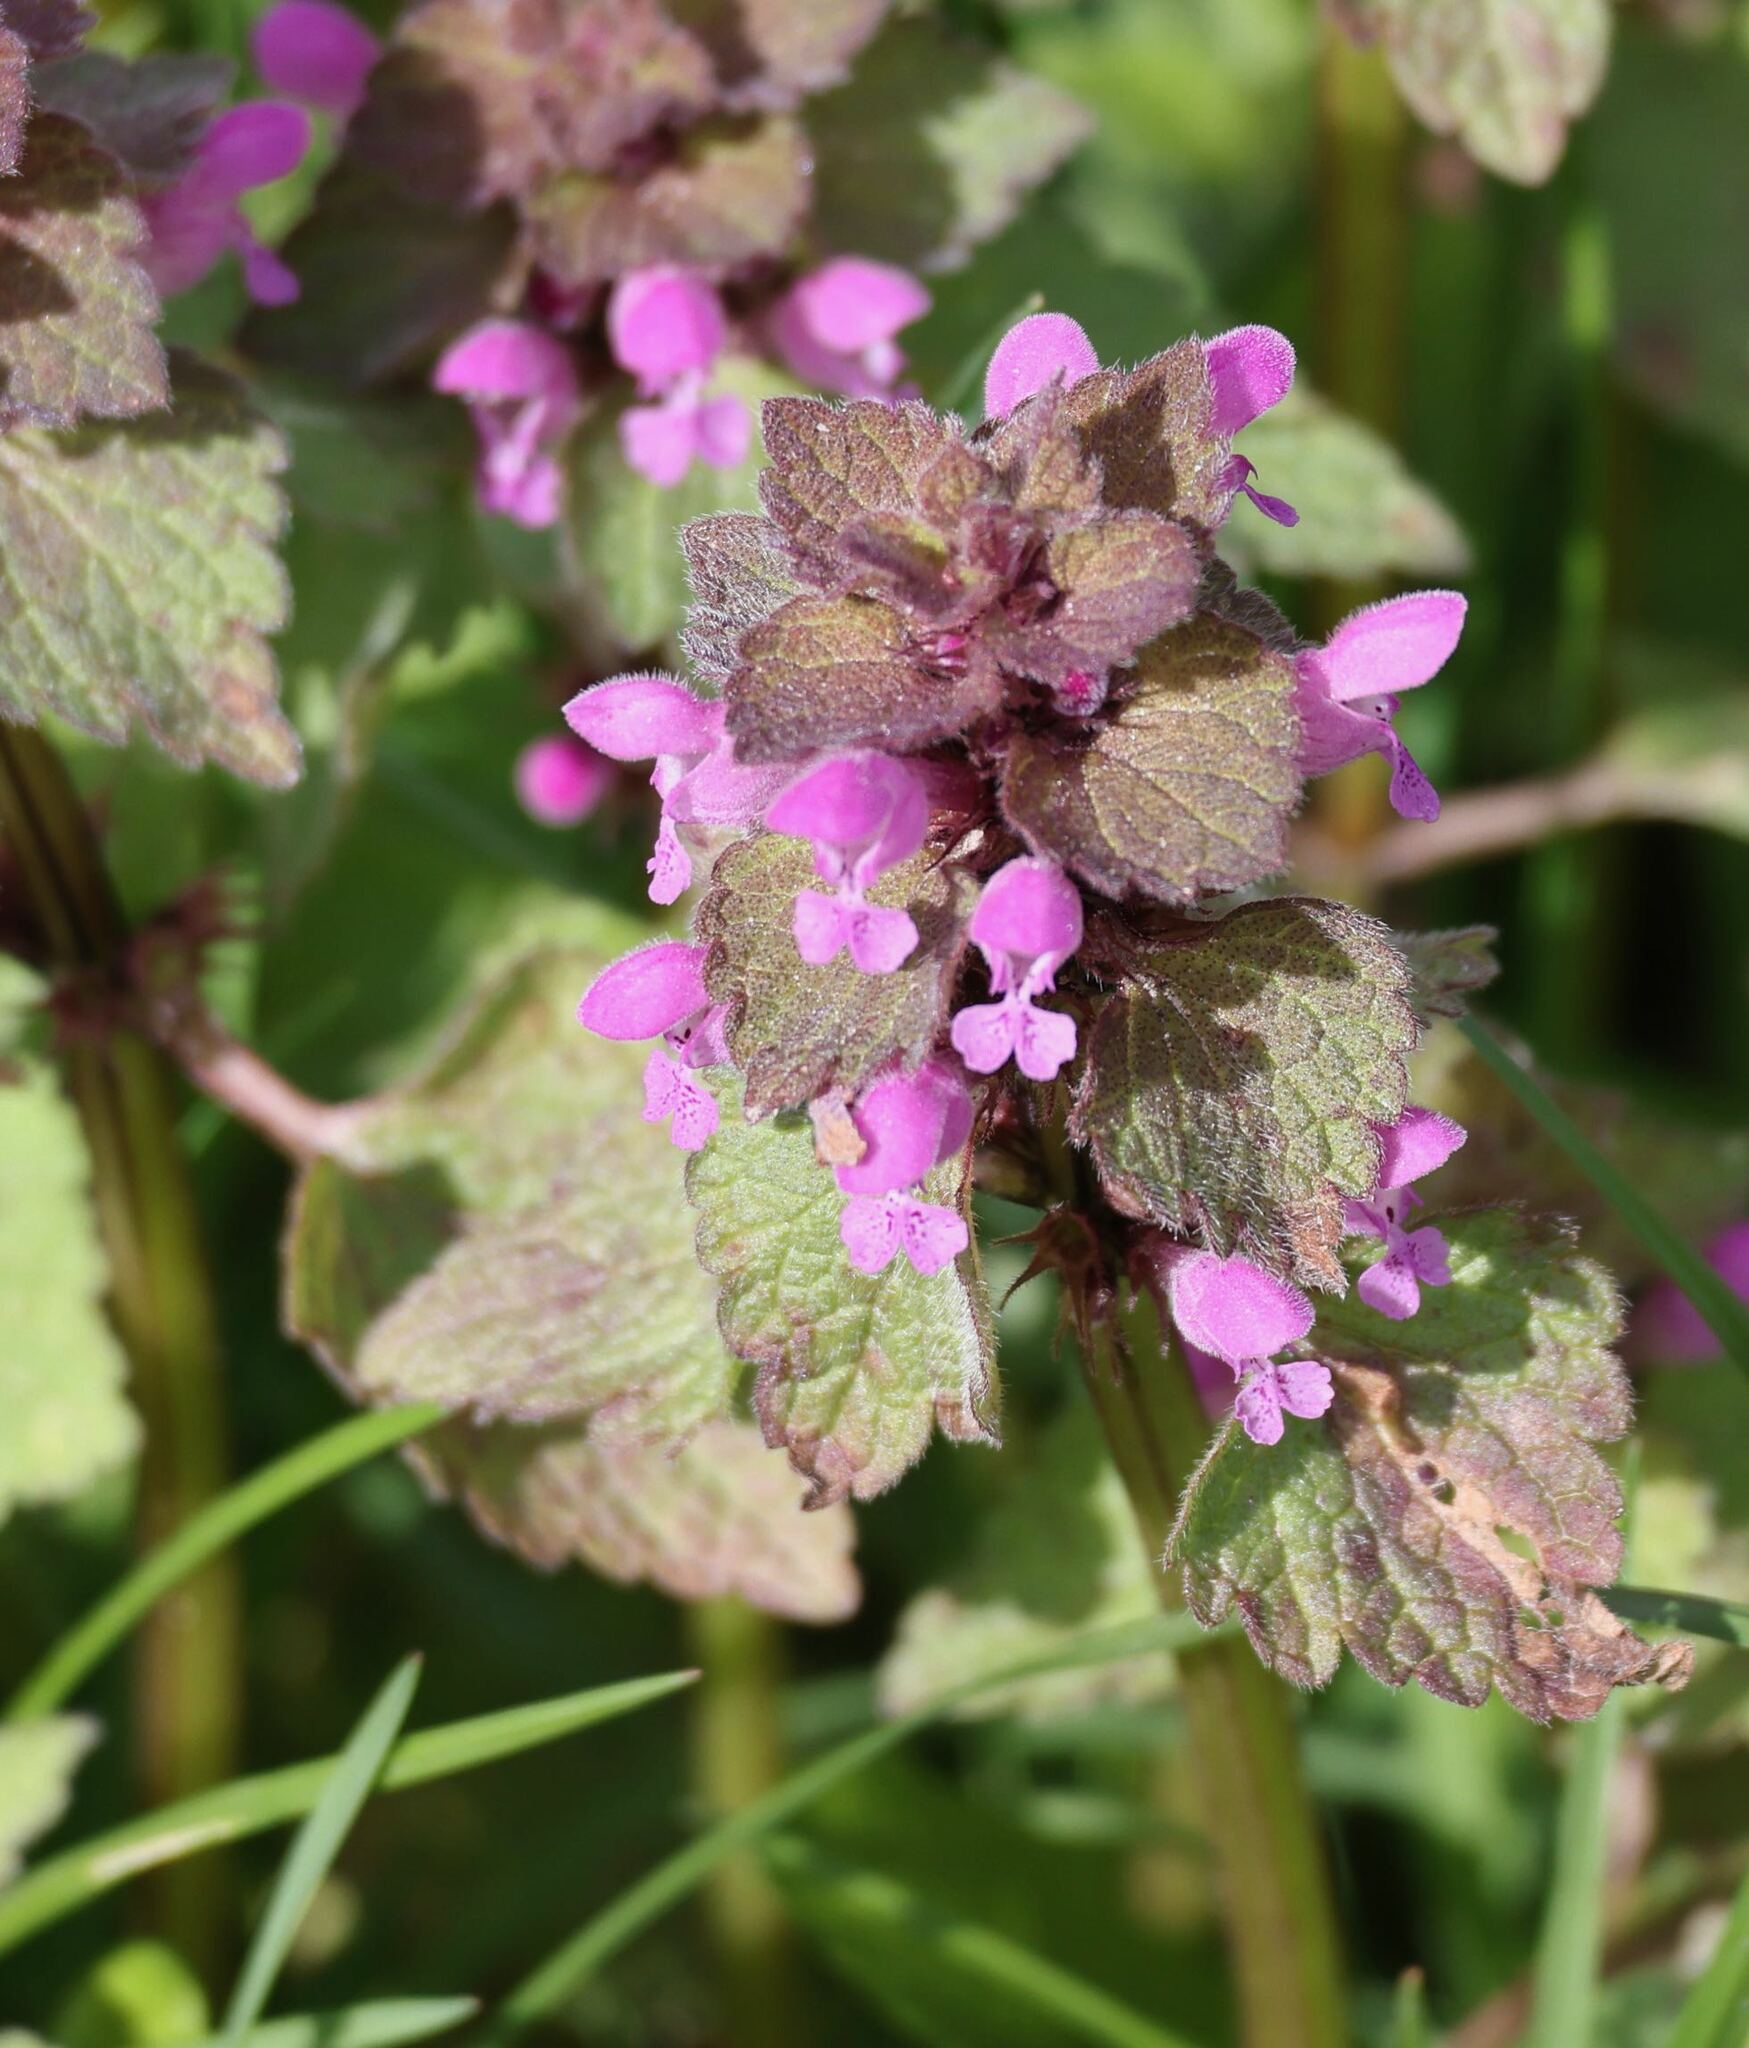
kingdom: Plantae
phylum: Tracheophyta
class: Magnoliopsida
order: Lamiales
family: Lamiaceae
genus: Lamium
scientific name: Lamium purpureum
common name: Red dead-nettle
